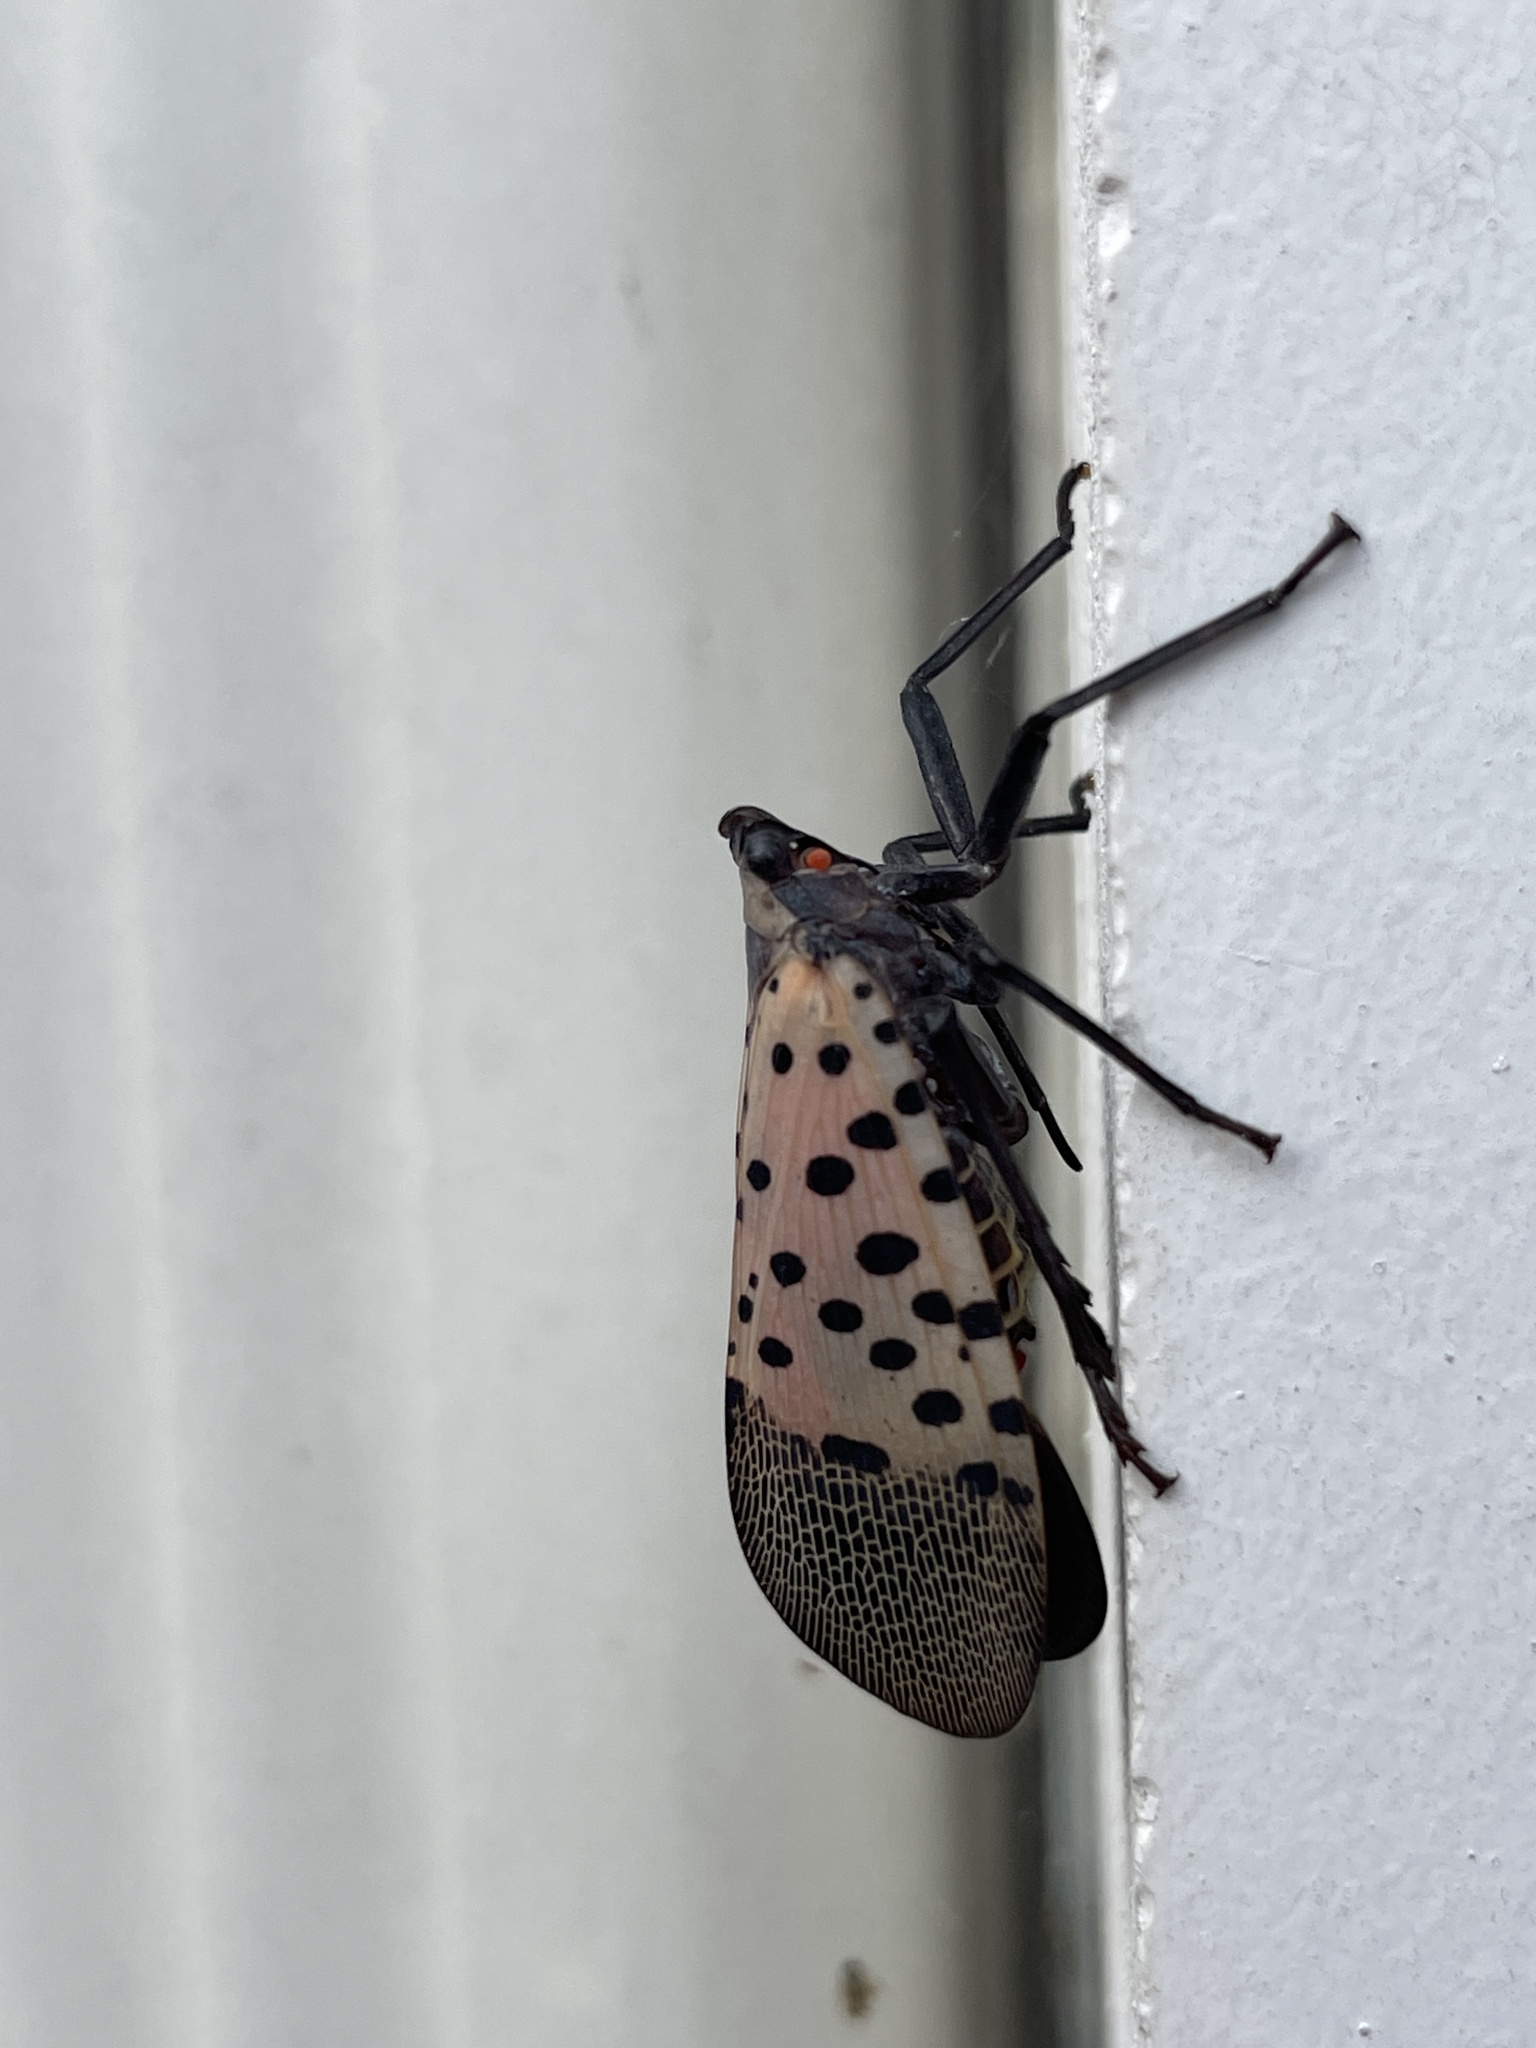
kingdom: Animalia
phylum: Arthropoda
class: Insecta
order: Hemiptera
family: Fulgoridae
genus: Lycorma
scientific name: Lycorma delicatula
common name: Spotted lanternfly
